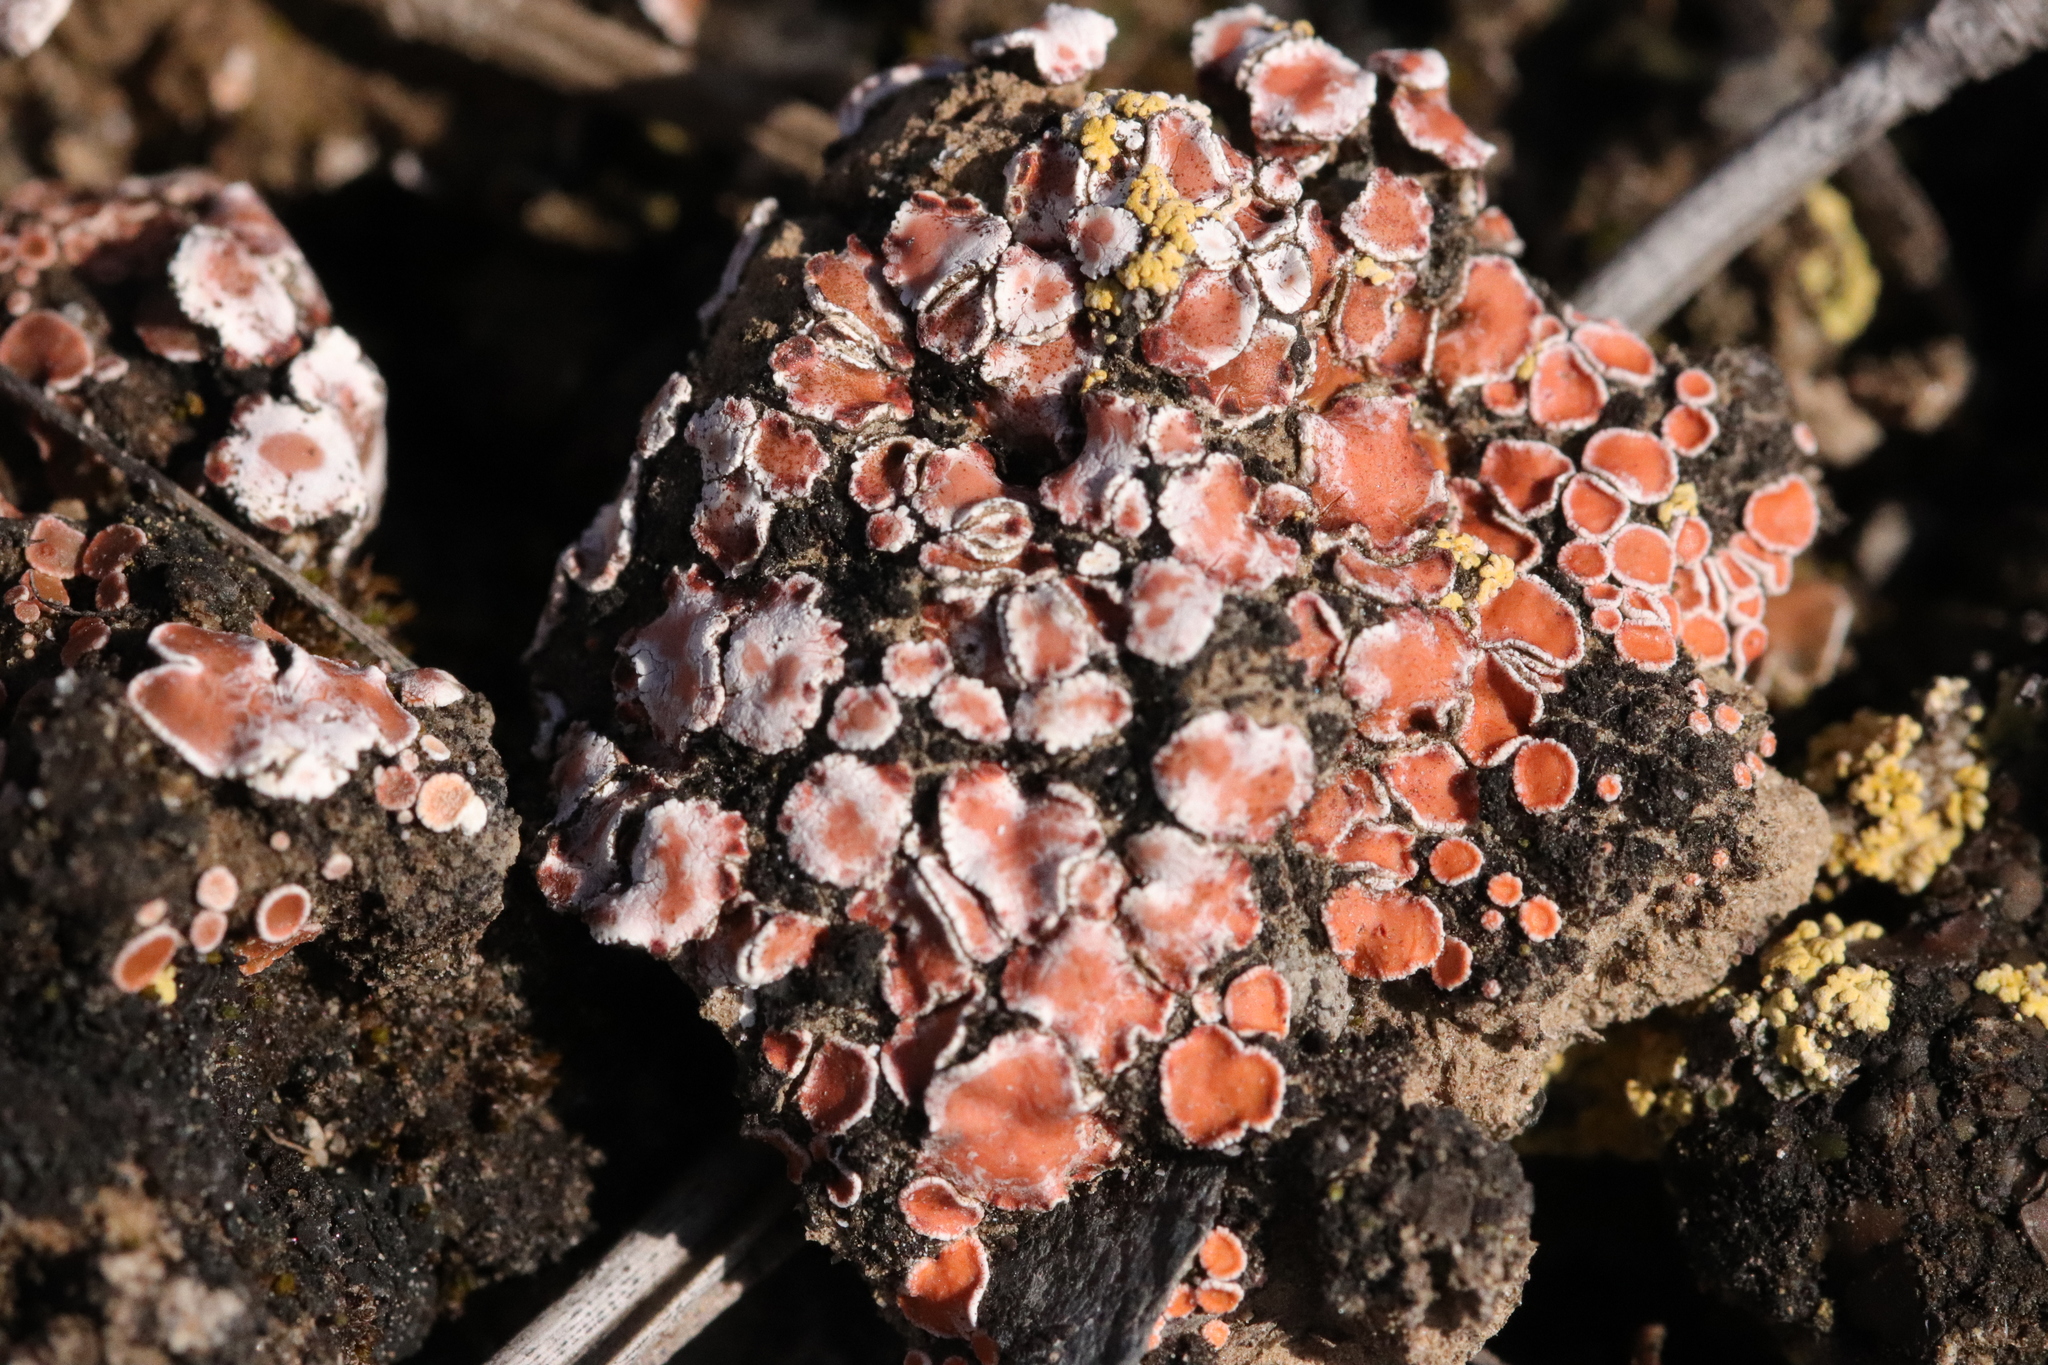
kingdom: Fungi
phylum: Ascomycota
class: Lecanoromycetes
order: Lecanorales
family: Psoraceae
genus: Psora
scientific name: Psora decipiens
